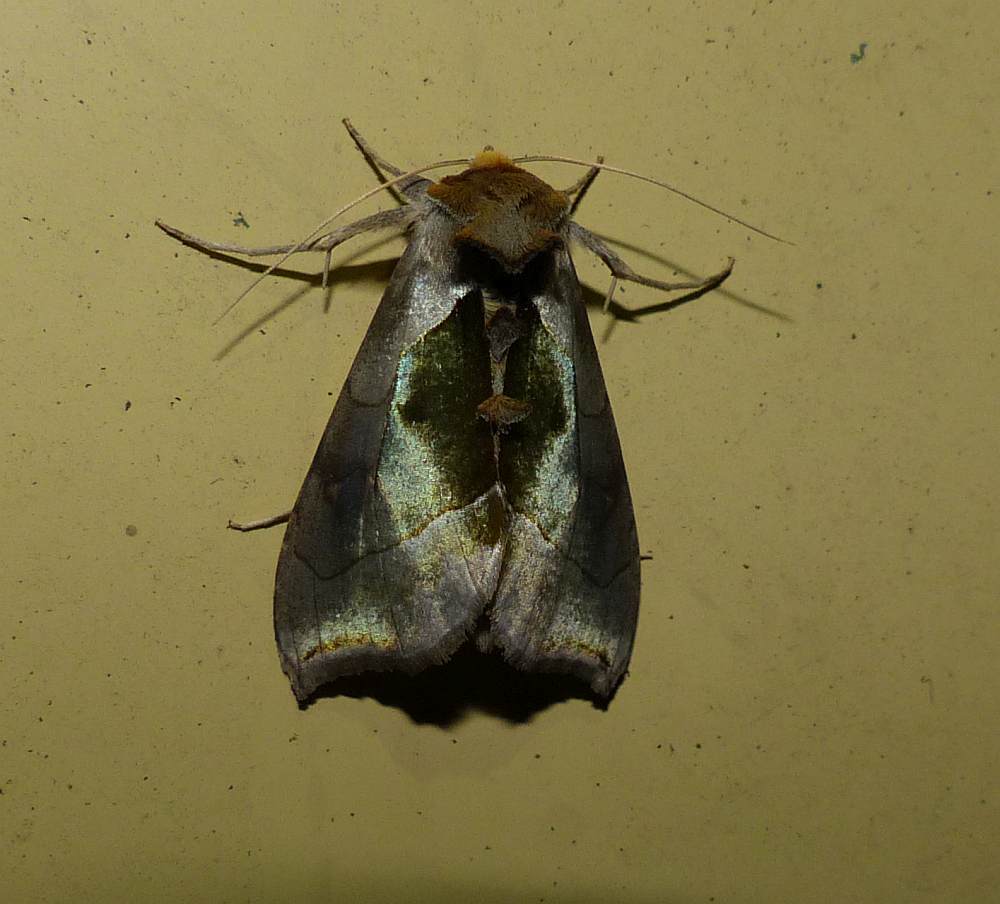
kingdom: Animalia
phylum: Arthropoda
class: Insecta
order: Lepidoptera
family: Noctuidae
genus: Diachrysia
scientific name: Diachrysia balluca
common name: Green-patched looper moth
